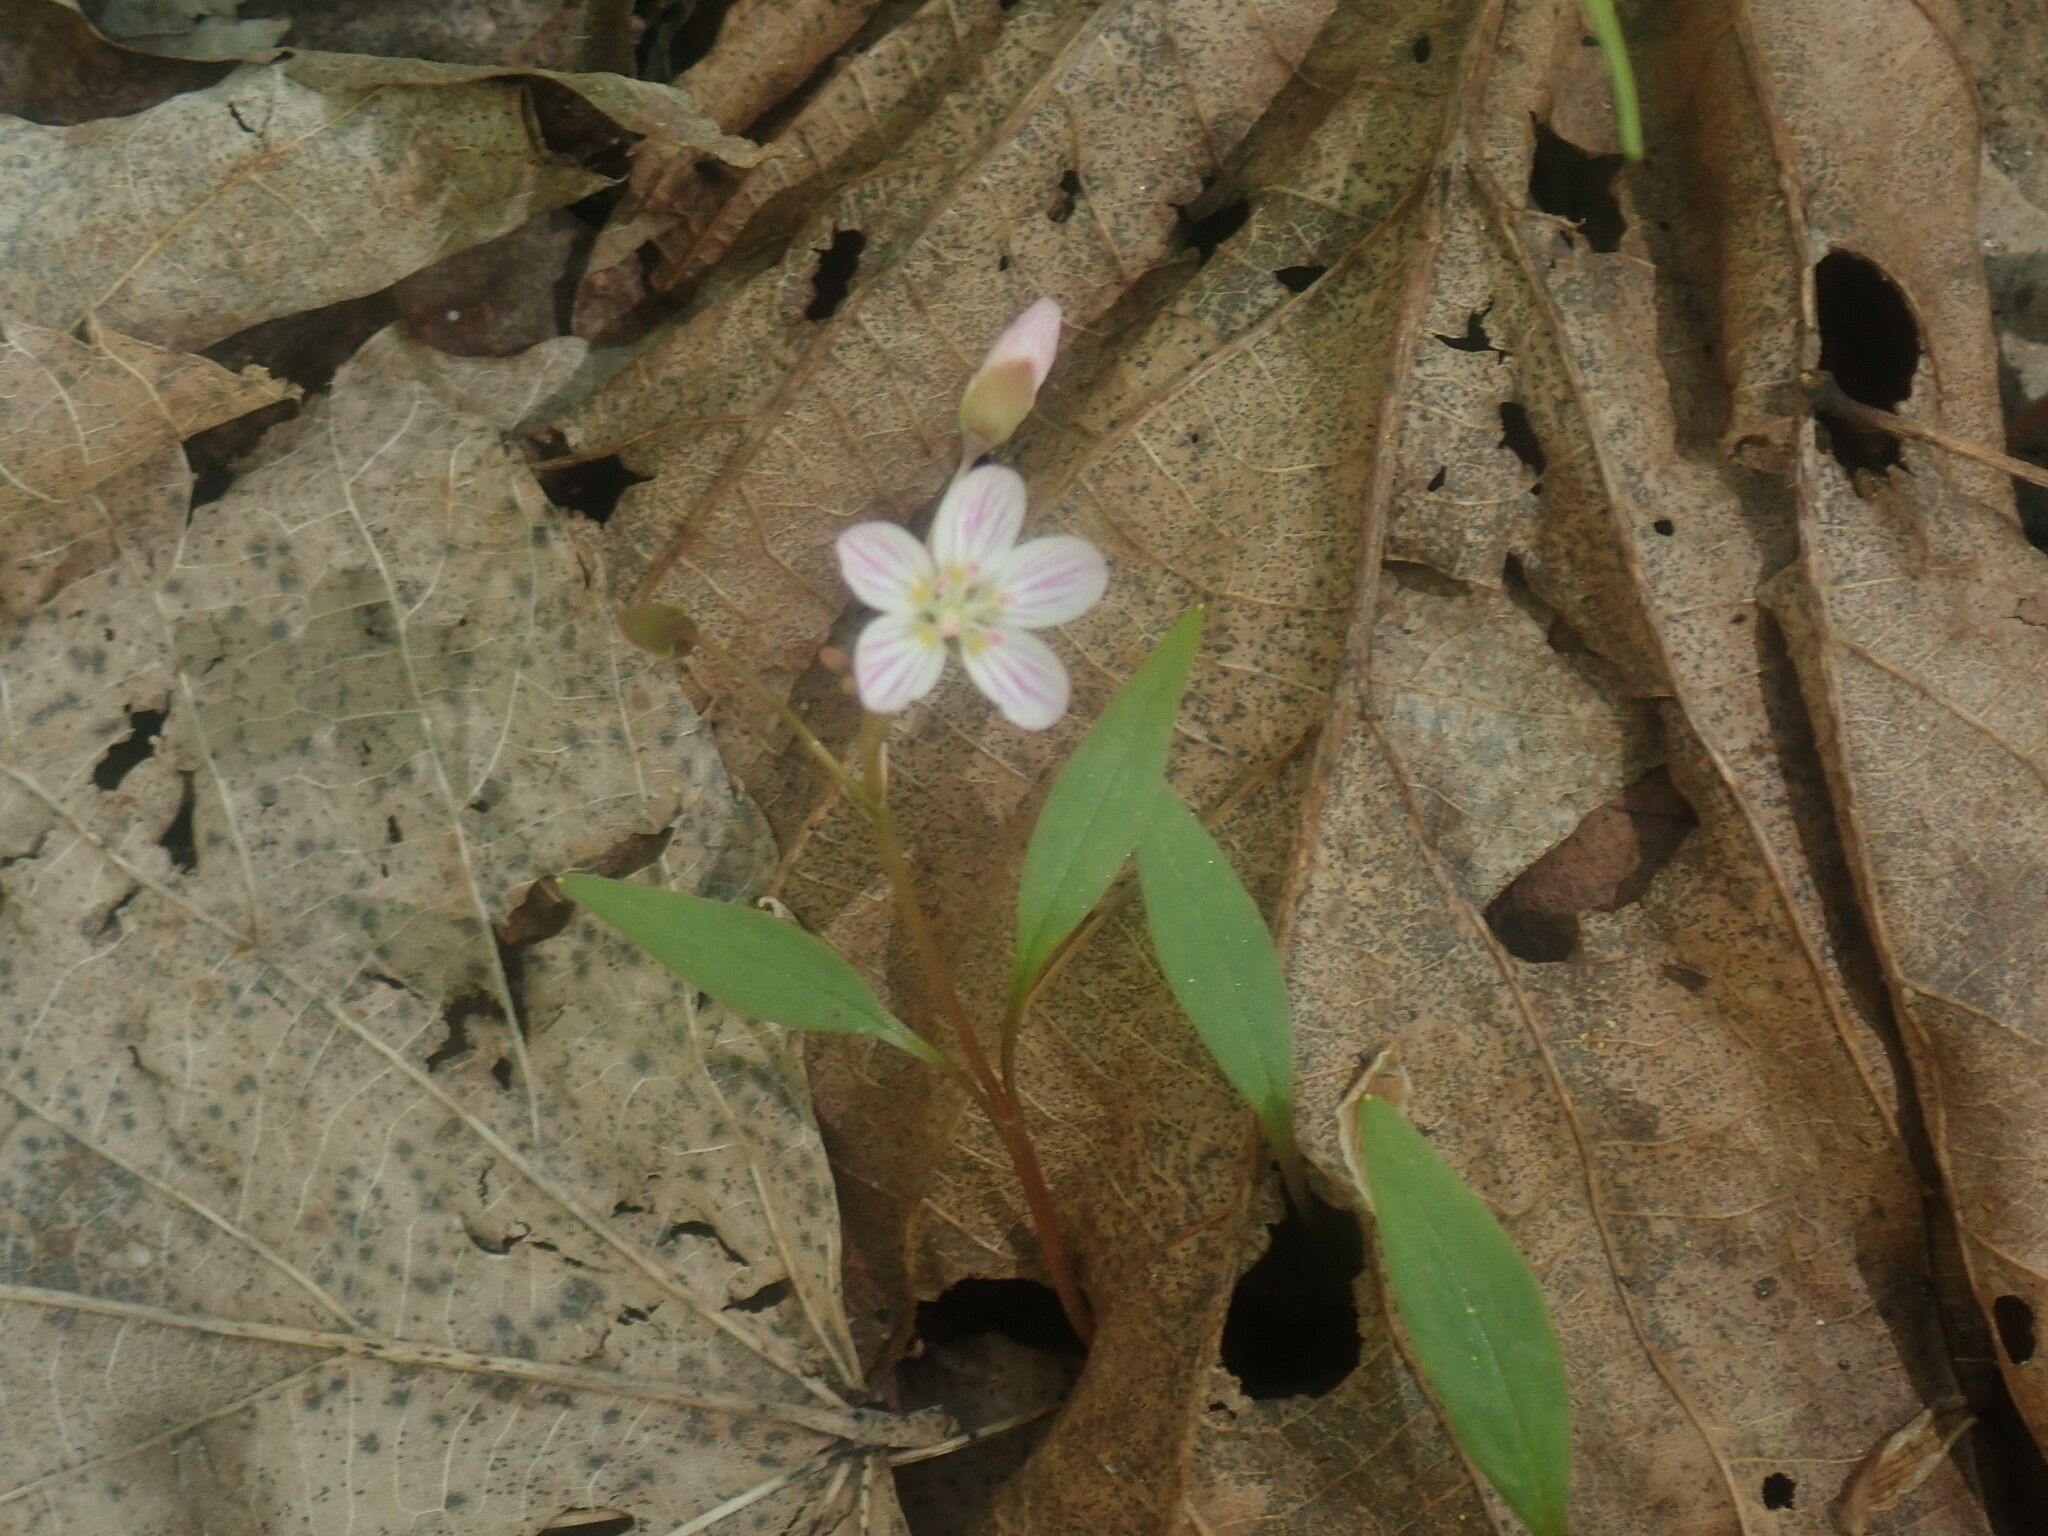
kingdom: Plantae
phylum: Tracheophyta
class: Magnoliopsida
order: Caryophyllales
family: Montiaceae
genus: Claytonia
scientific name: Claytonia caroliniana
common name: Carolina spring beauty
